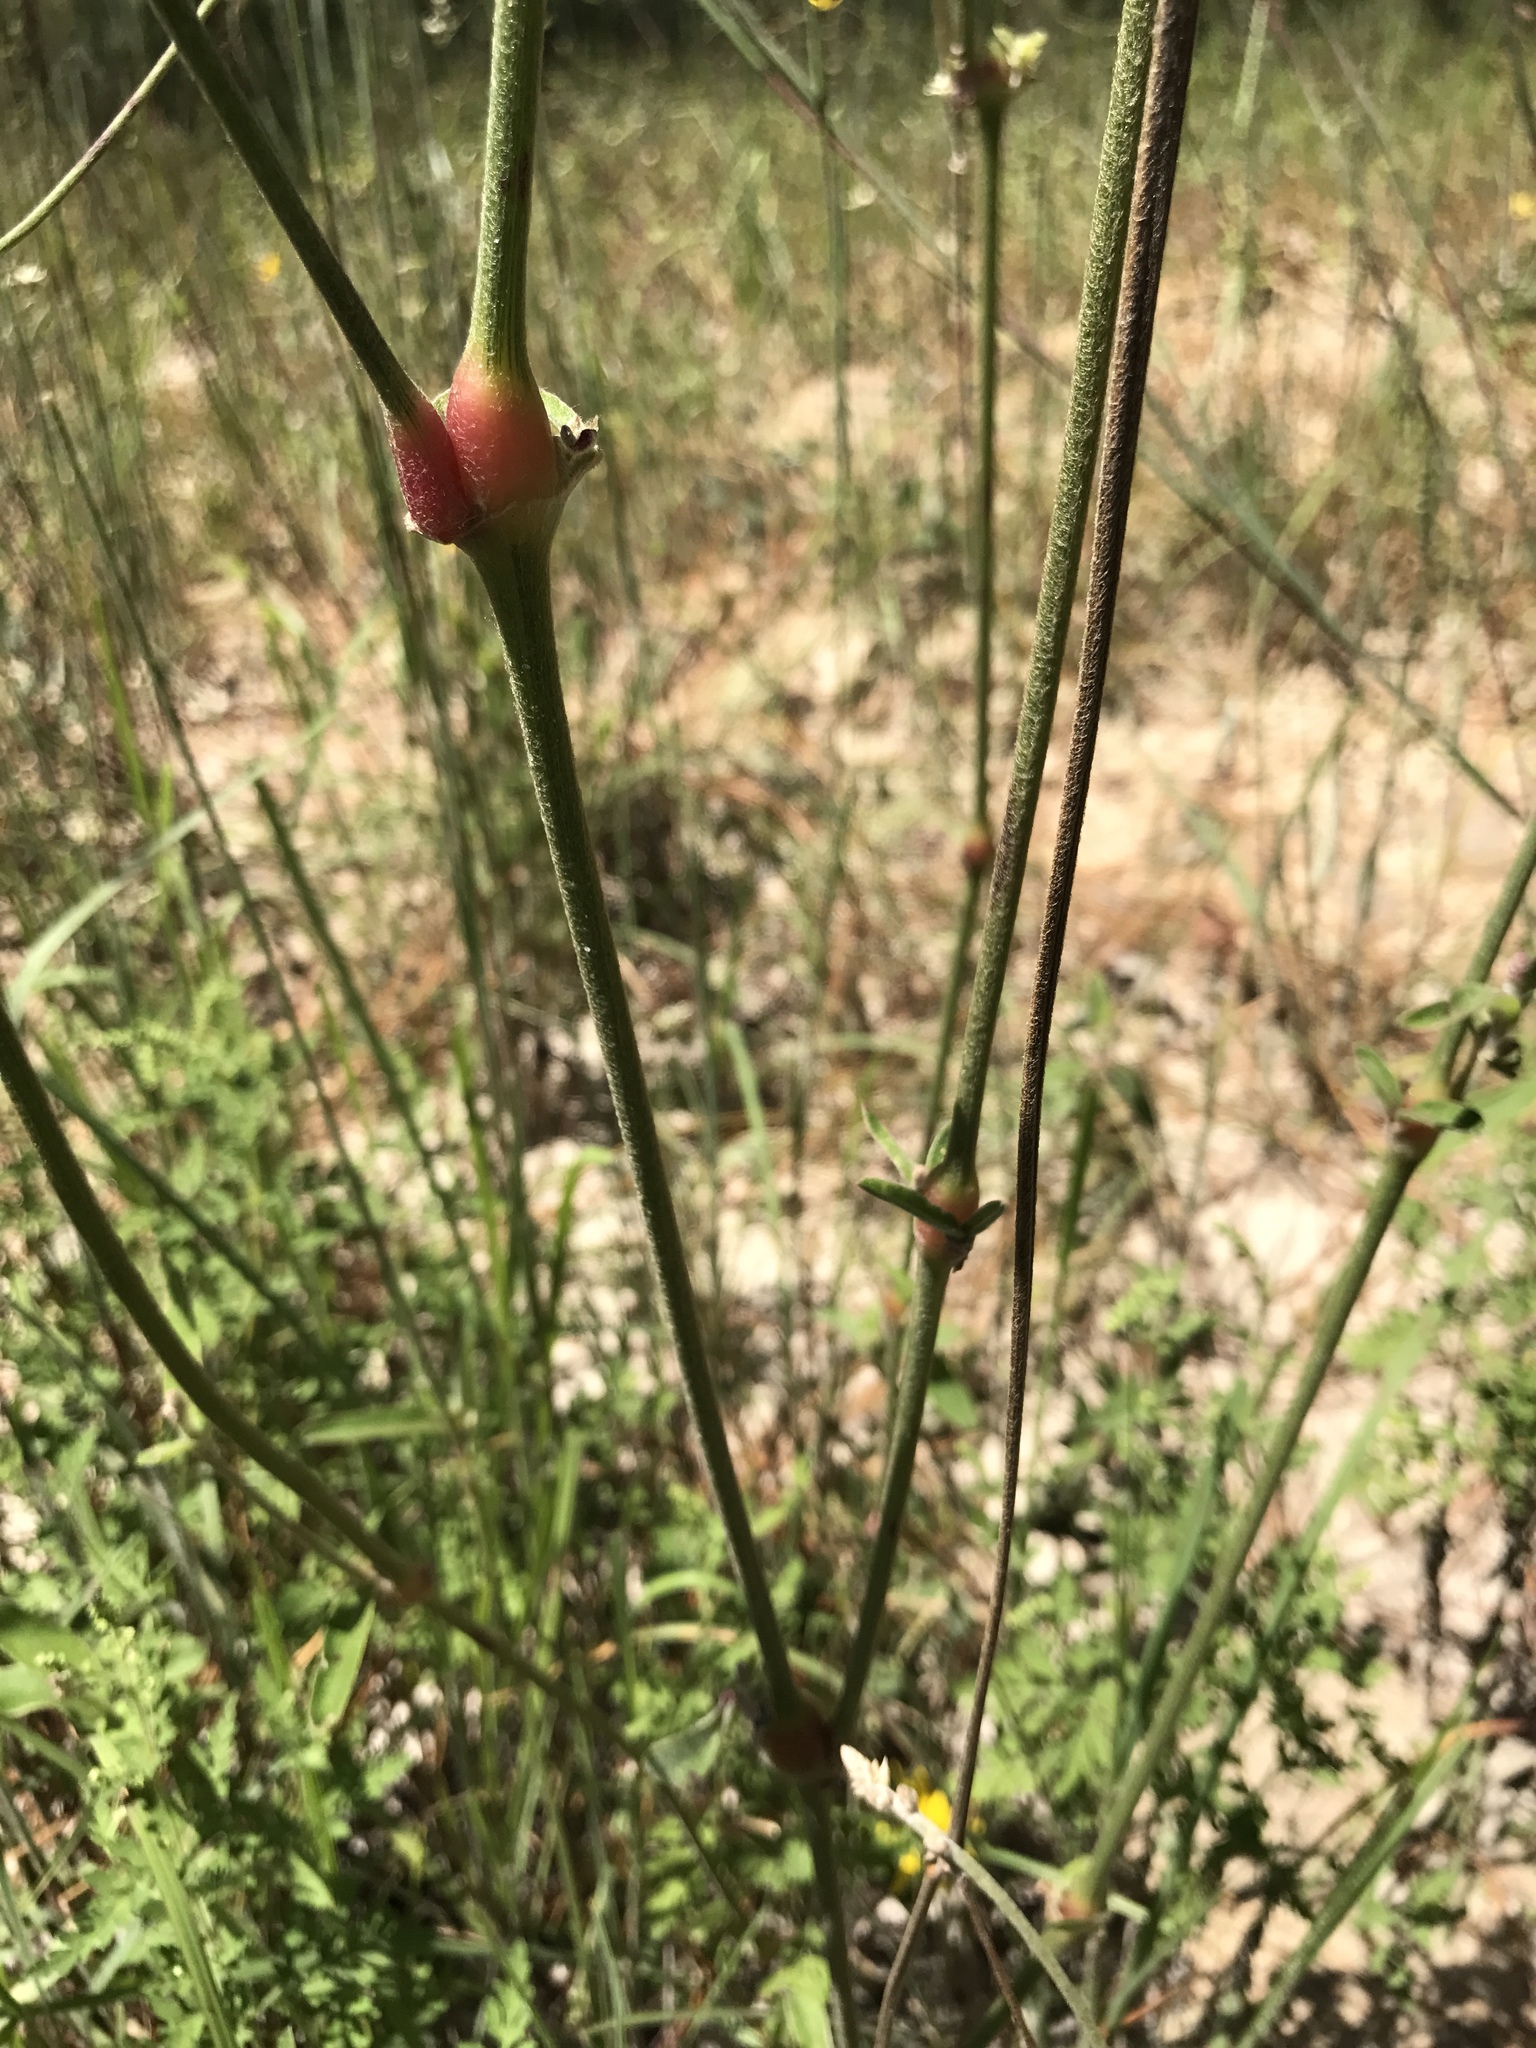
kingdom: Plantae
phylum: Tracheophyta
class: Magnoliopsida
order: Caryophyllales
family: Amaranthaceae
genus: Froelichia
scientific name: Froelichia floridana
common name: Florida snake-cotton
